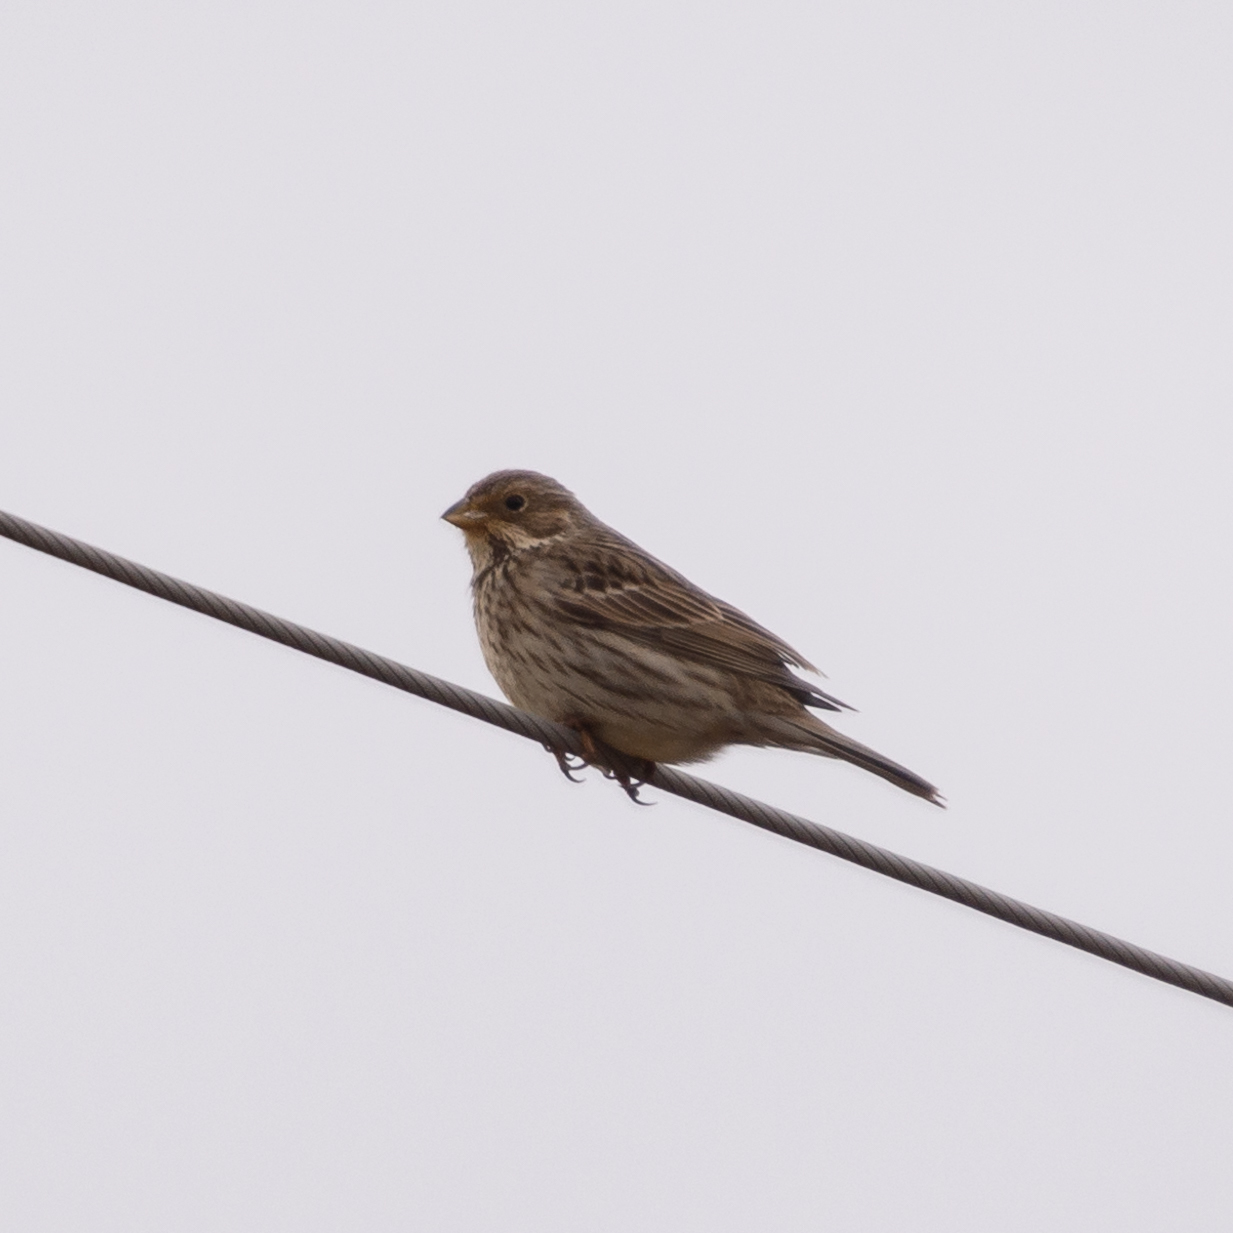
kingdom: Animalia
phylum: Chordata
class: Aves
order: Passeriformes
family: Emberizidae
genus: Emberiza
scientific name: Emberiza calandra
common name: Corn bunting
